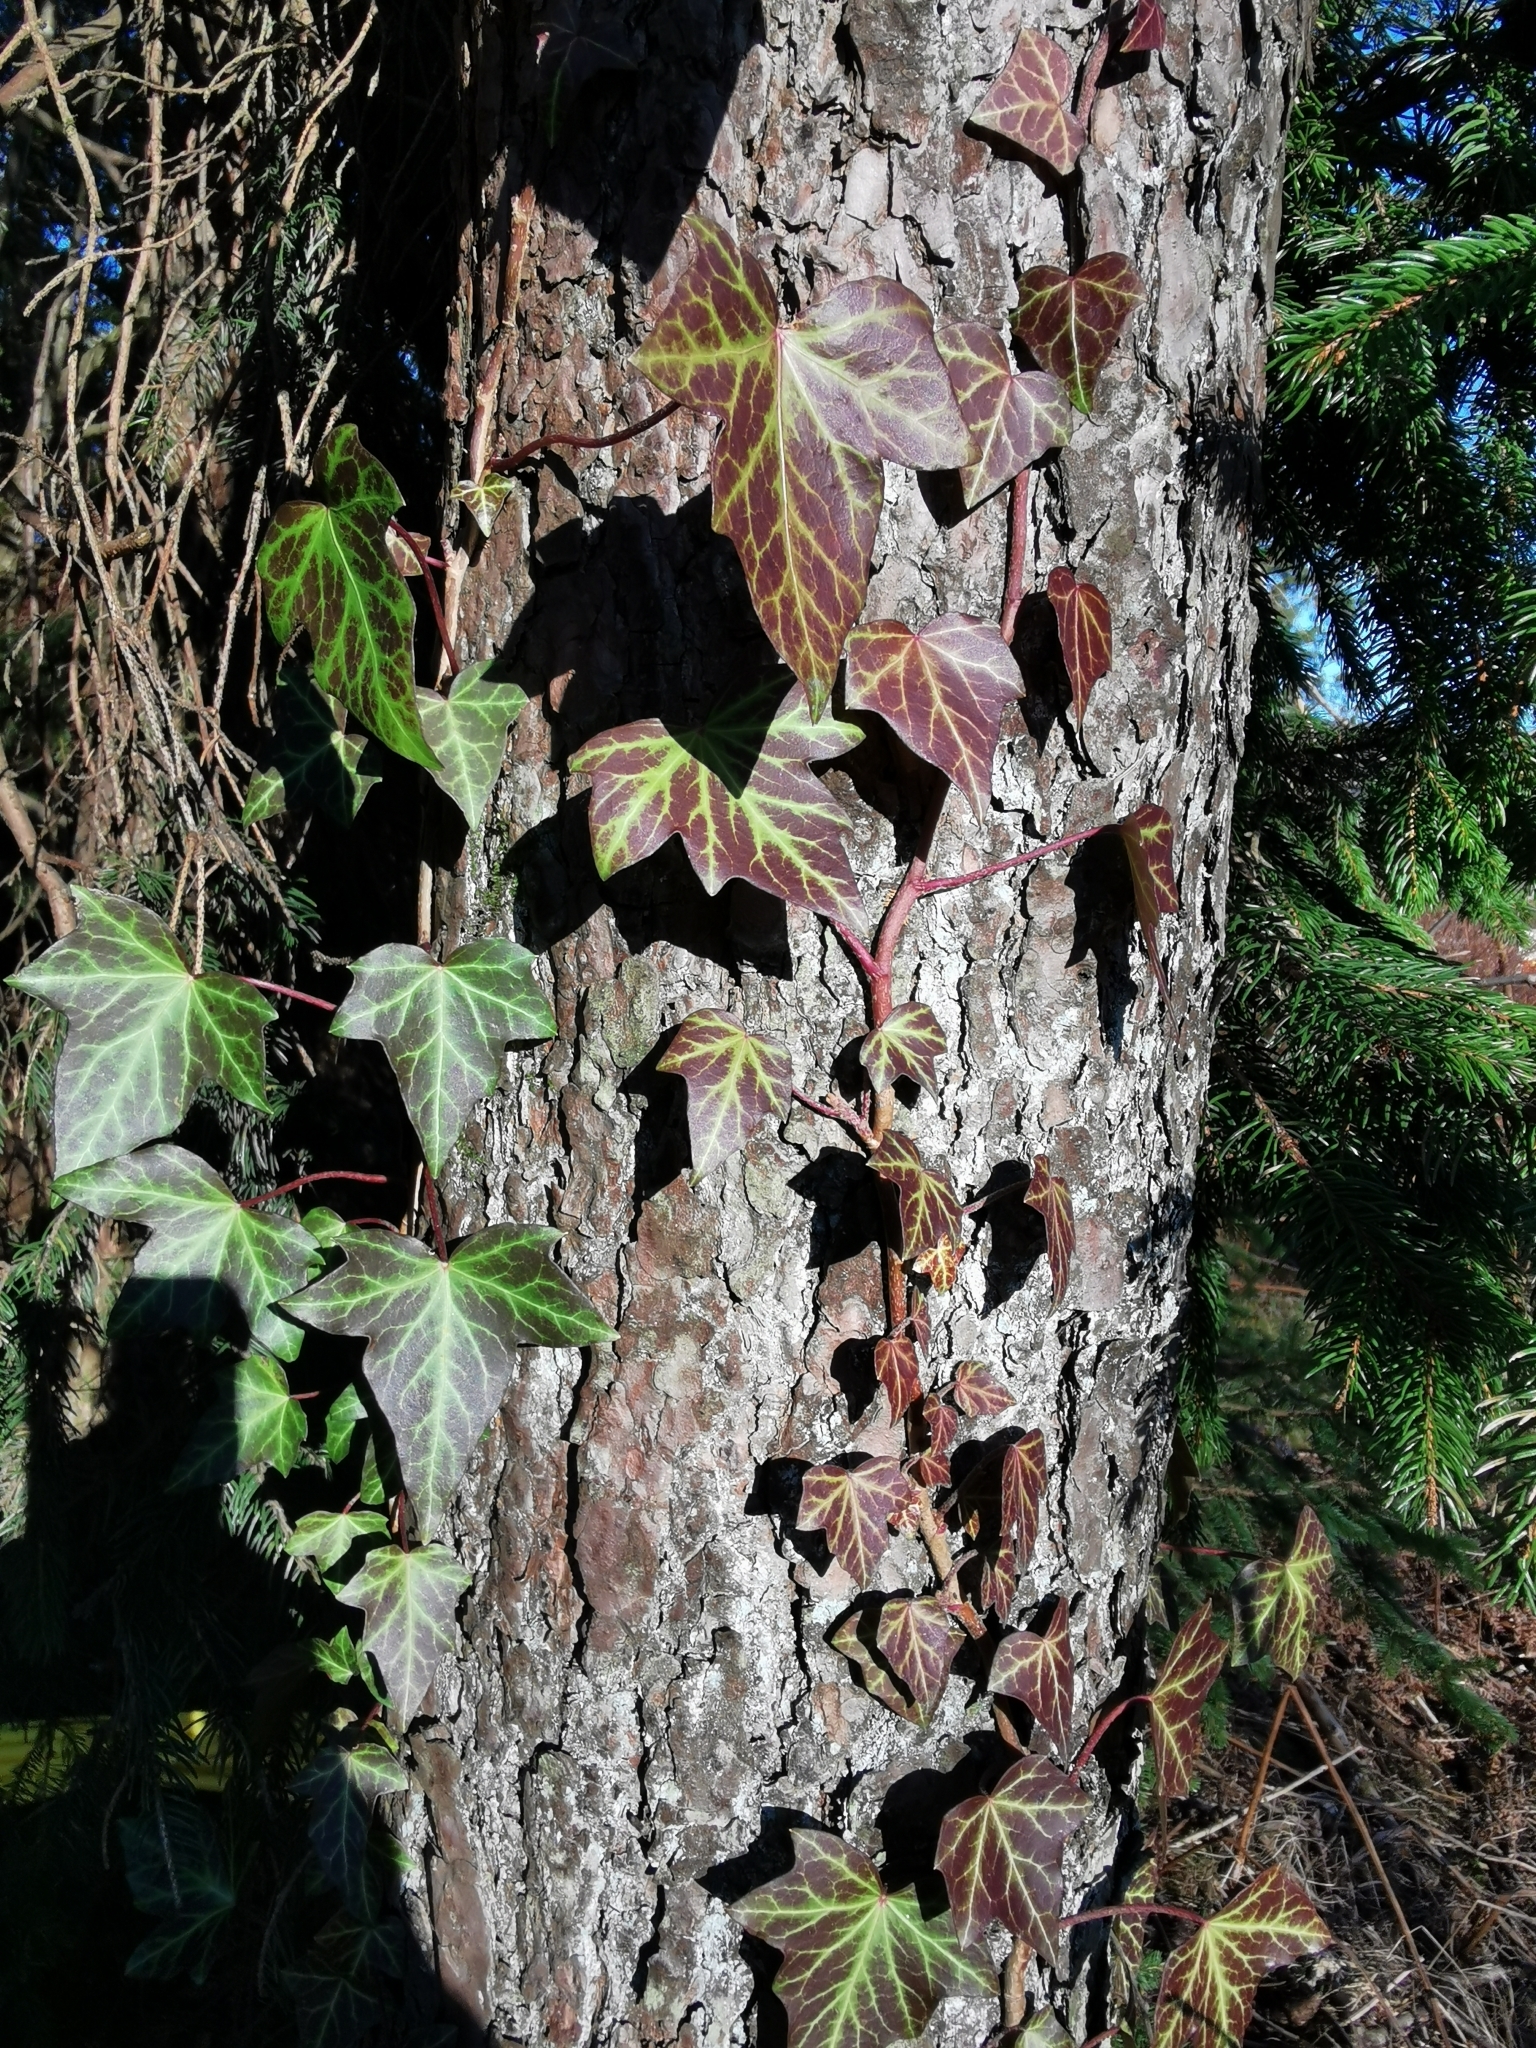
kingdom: Plantae
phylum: Tracheophyta
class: Magnoliopsida
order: Apiales
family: Araliaceae
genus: Hedera
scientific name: Hedera helix
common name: Ivy
